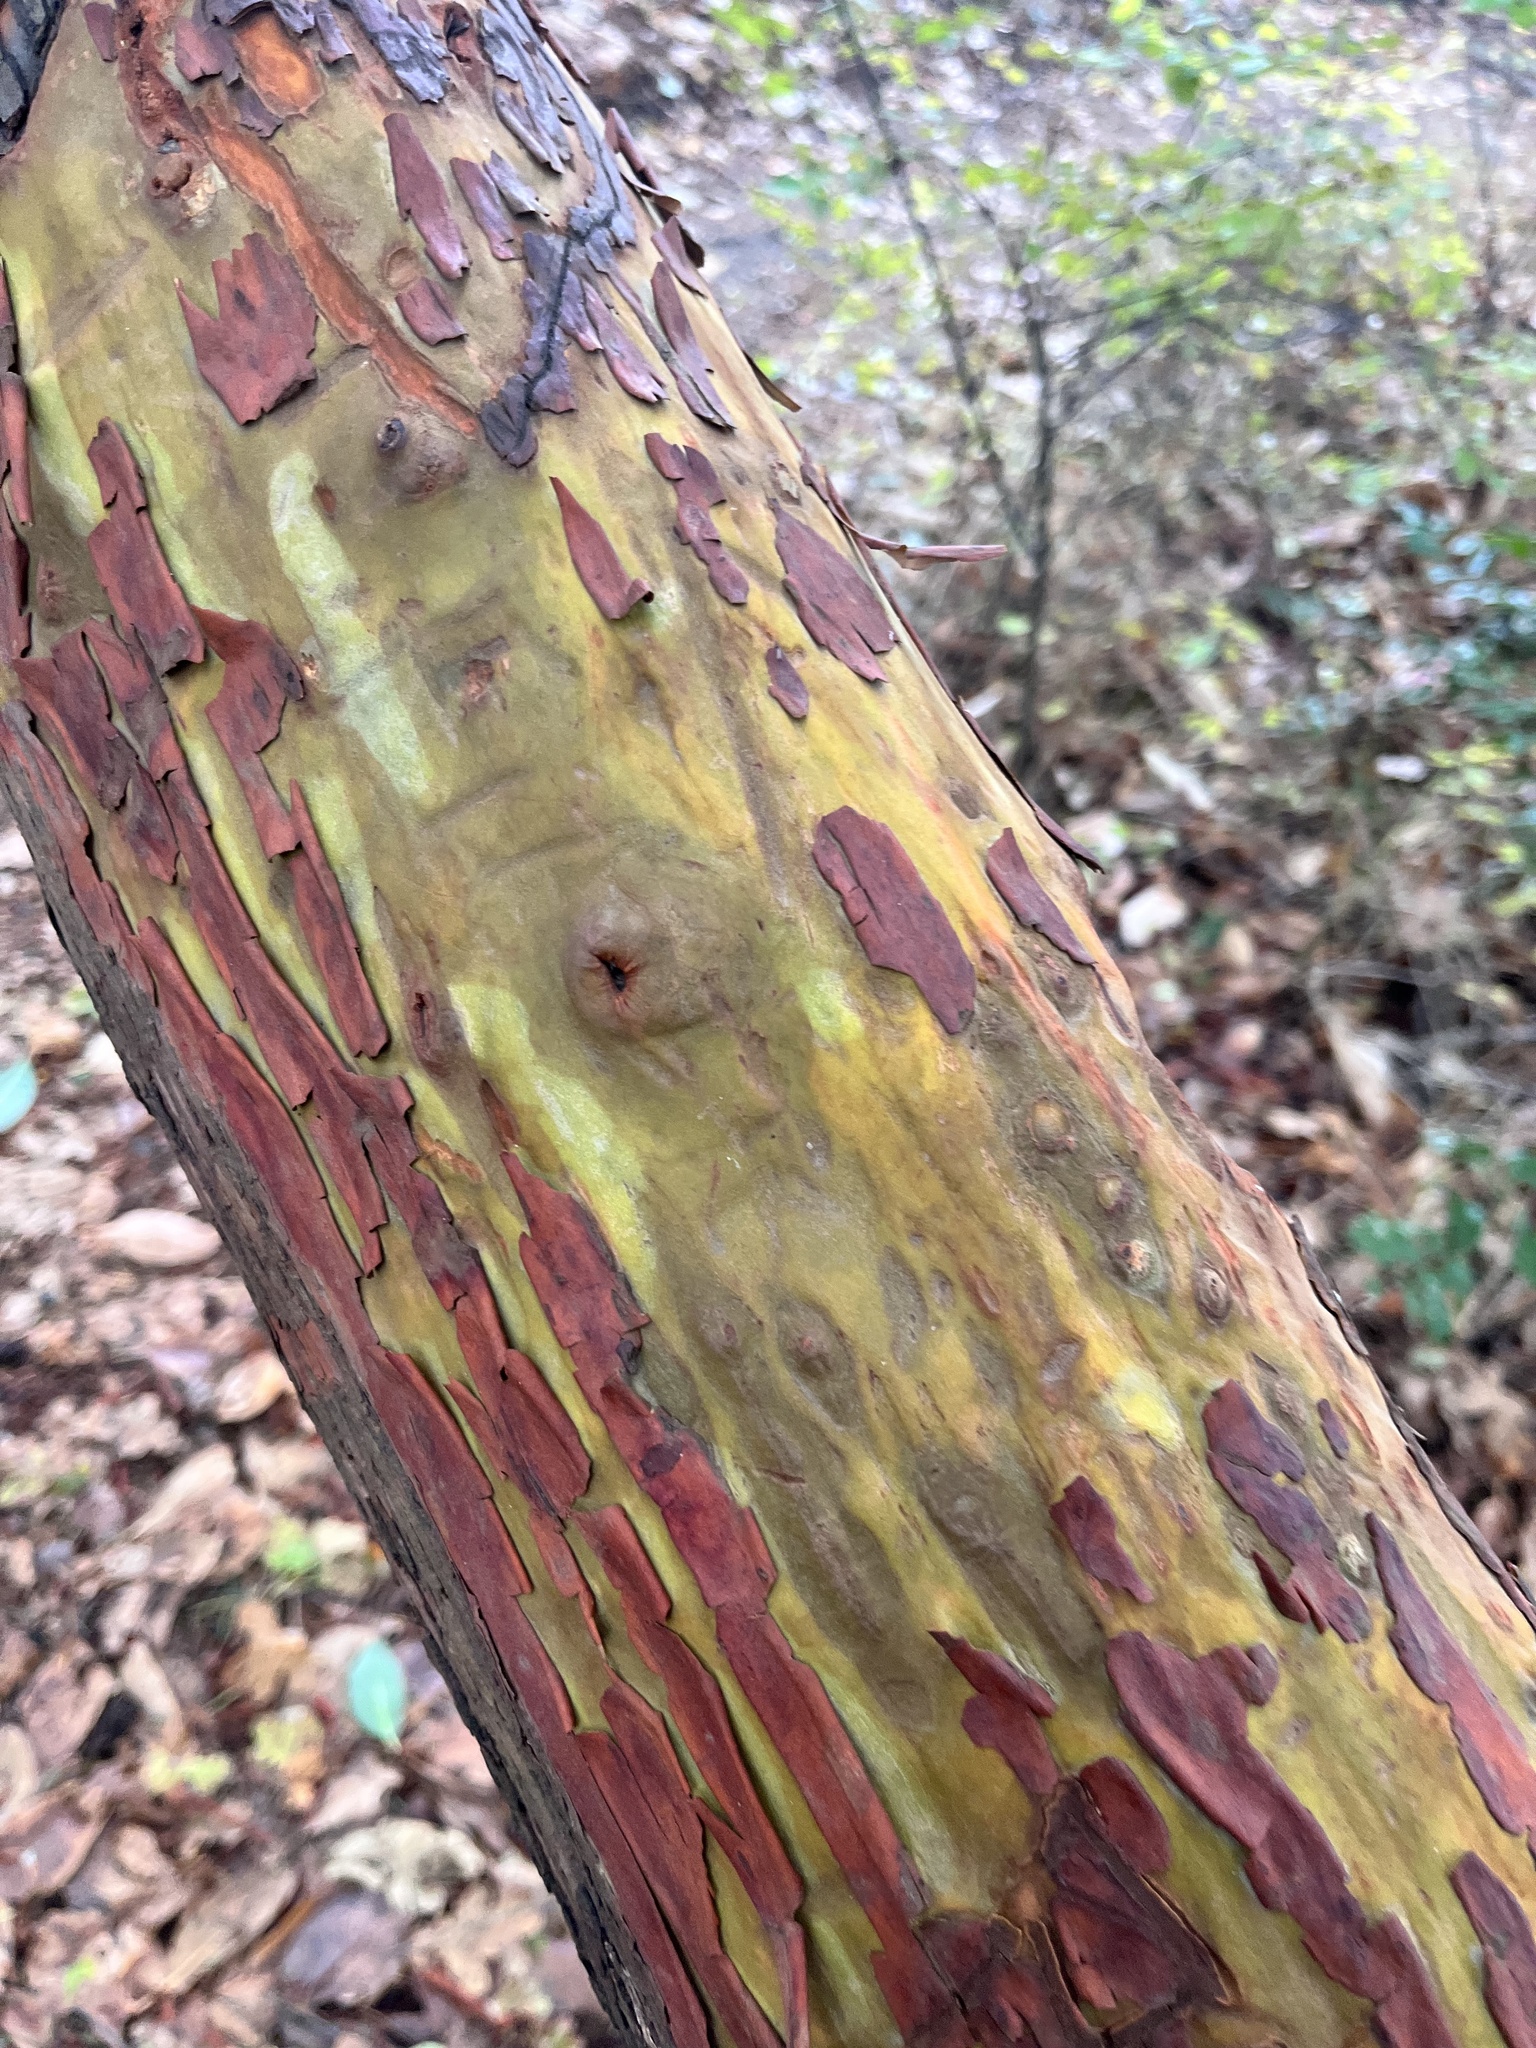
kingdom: Plantae
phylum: Tracheophyta
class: Magnoliopsida
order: Ericales
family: Ericaceae
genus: Arbutus
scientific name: Arbutus menziesii
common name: Pacific madrone
